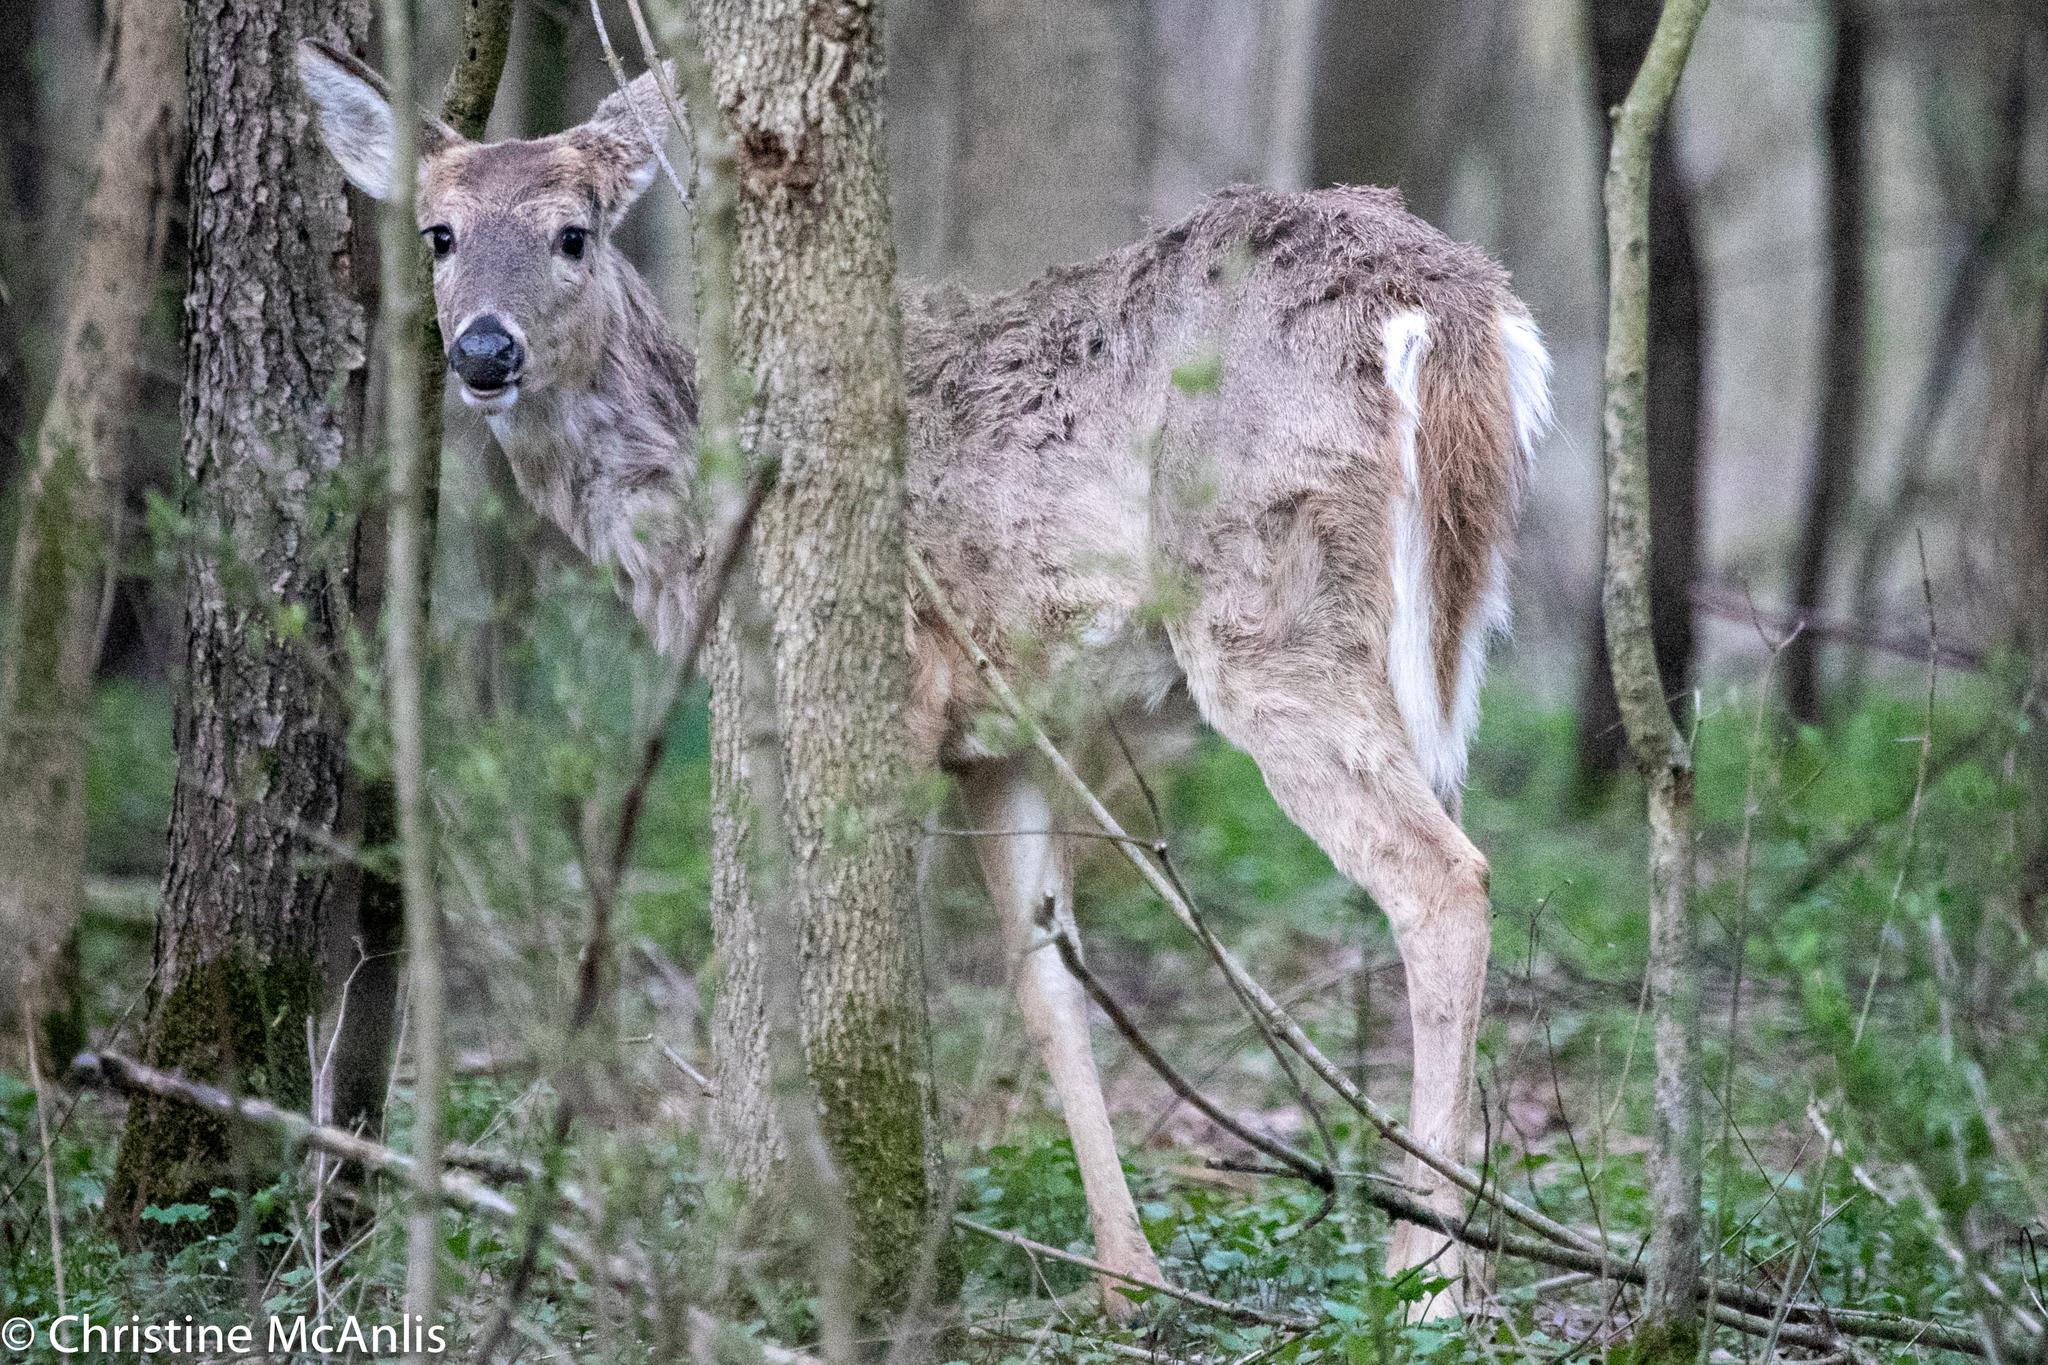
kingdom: Animalia
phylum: Chordata
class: Mammalia
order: Artiodactyla
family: Cervidae
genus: Odocoileus
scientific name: Odocoileus virginianus
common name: White-tailed deer
